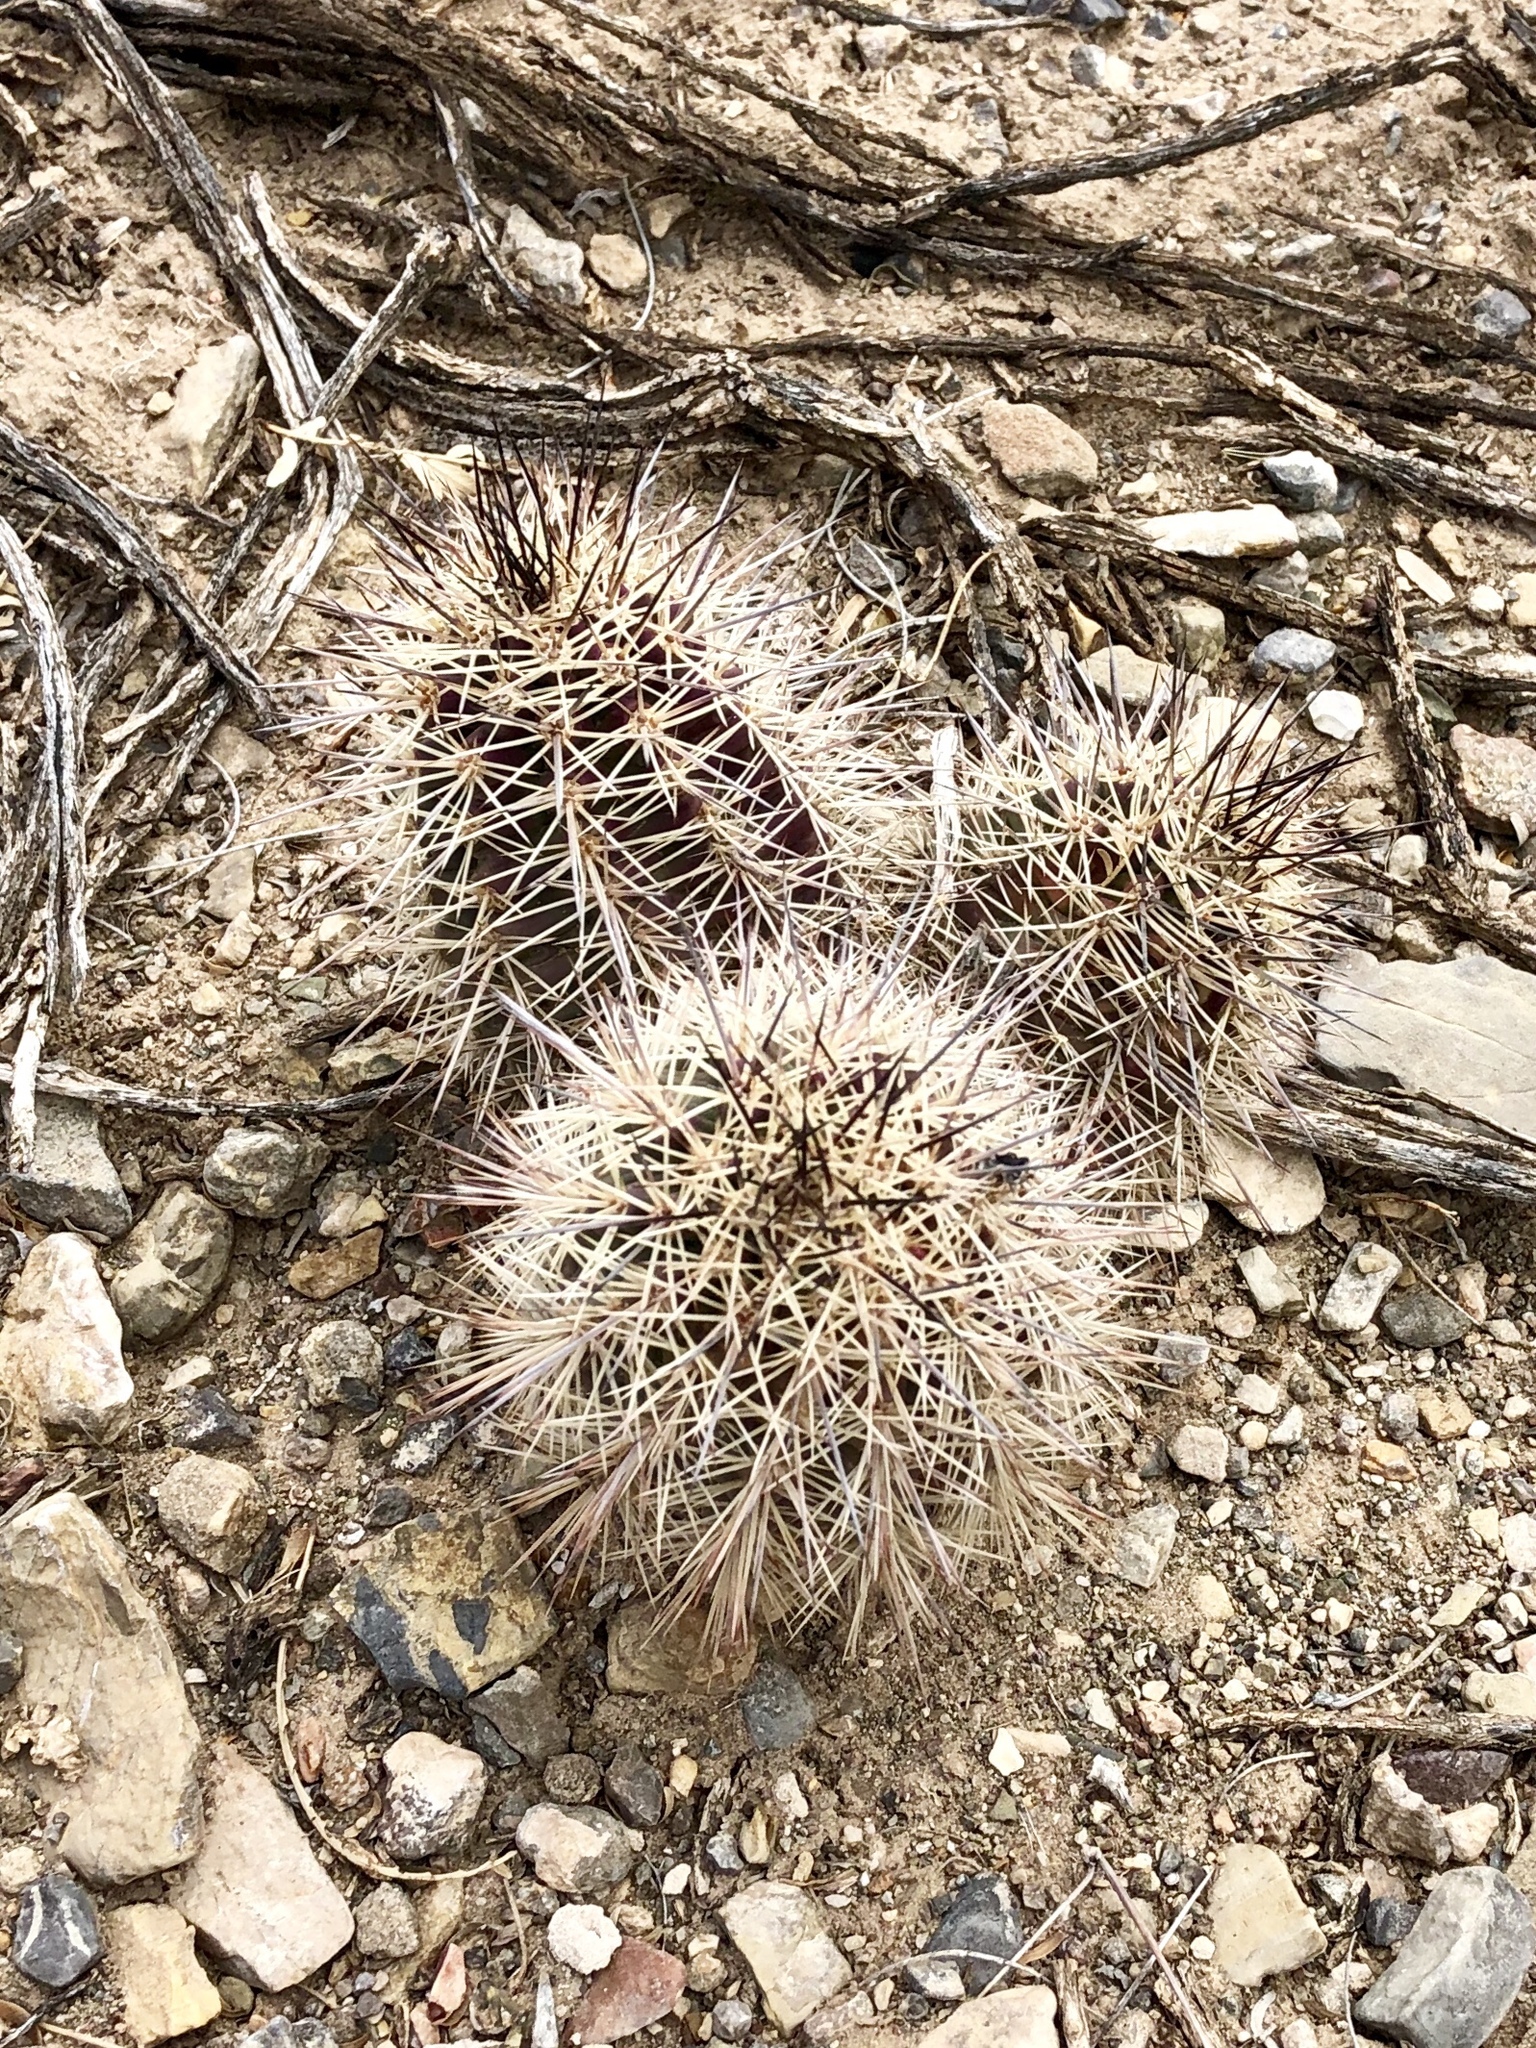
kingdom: Plantae
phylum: Tracheophyta
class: Magnoliopsida
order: Caryophyllales
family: Cactaceae
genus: Echinocereus
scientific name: Echinocereus coccineus
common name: Scarlet hedgehog cactus
